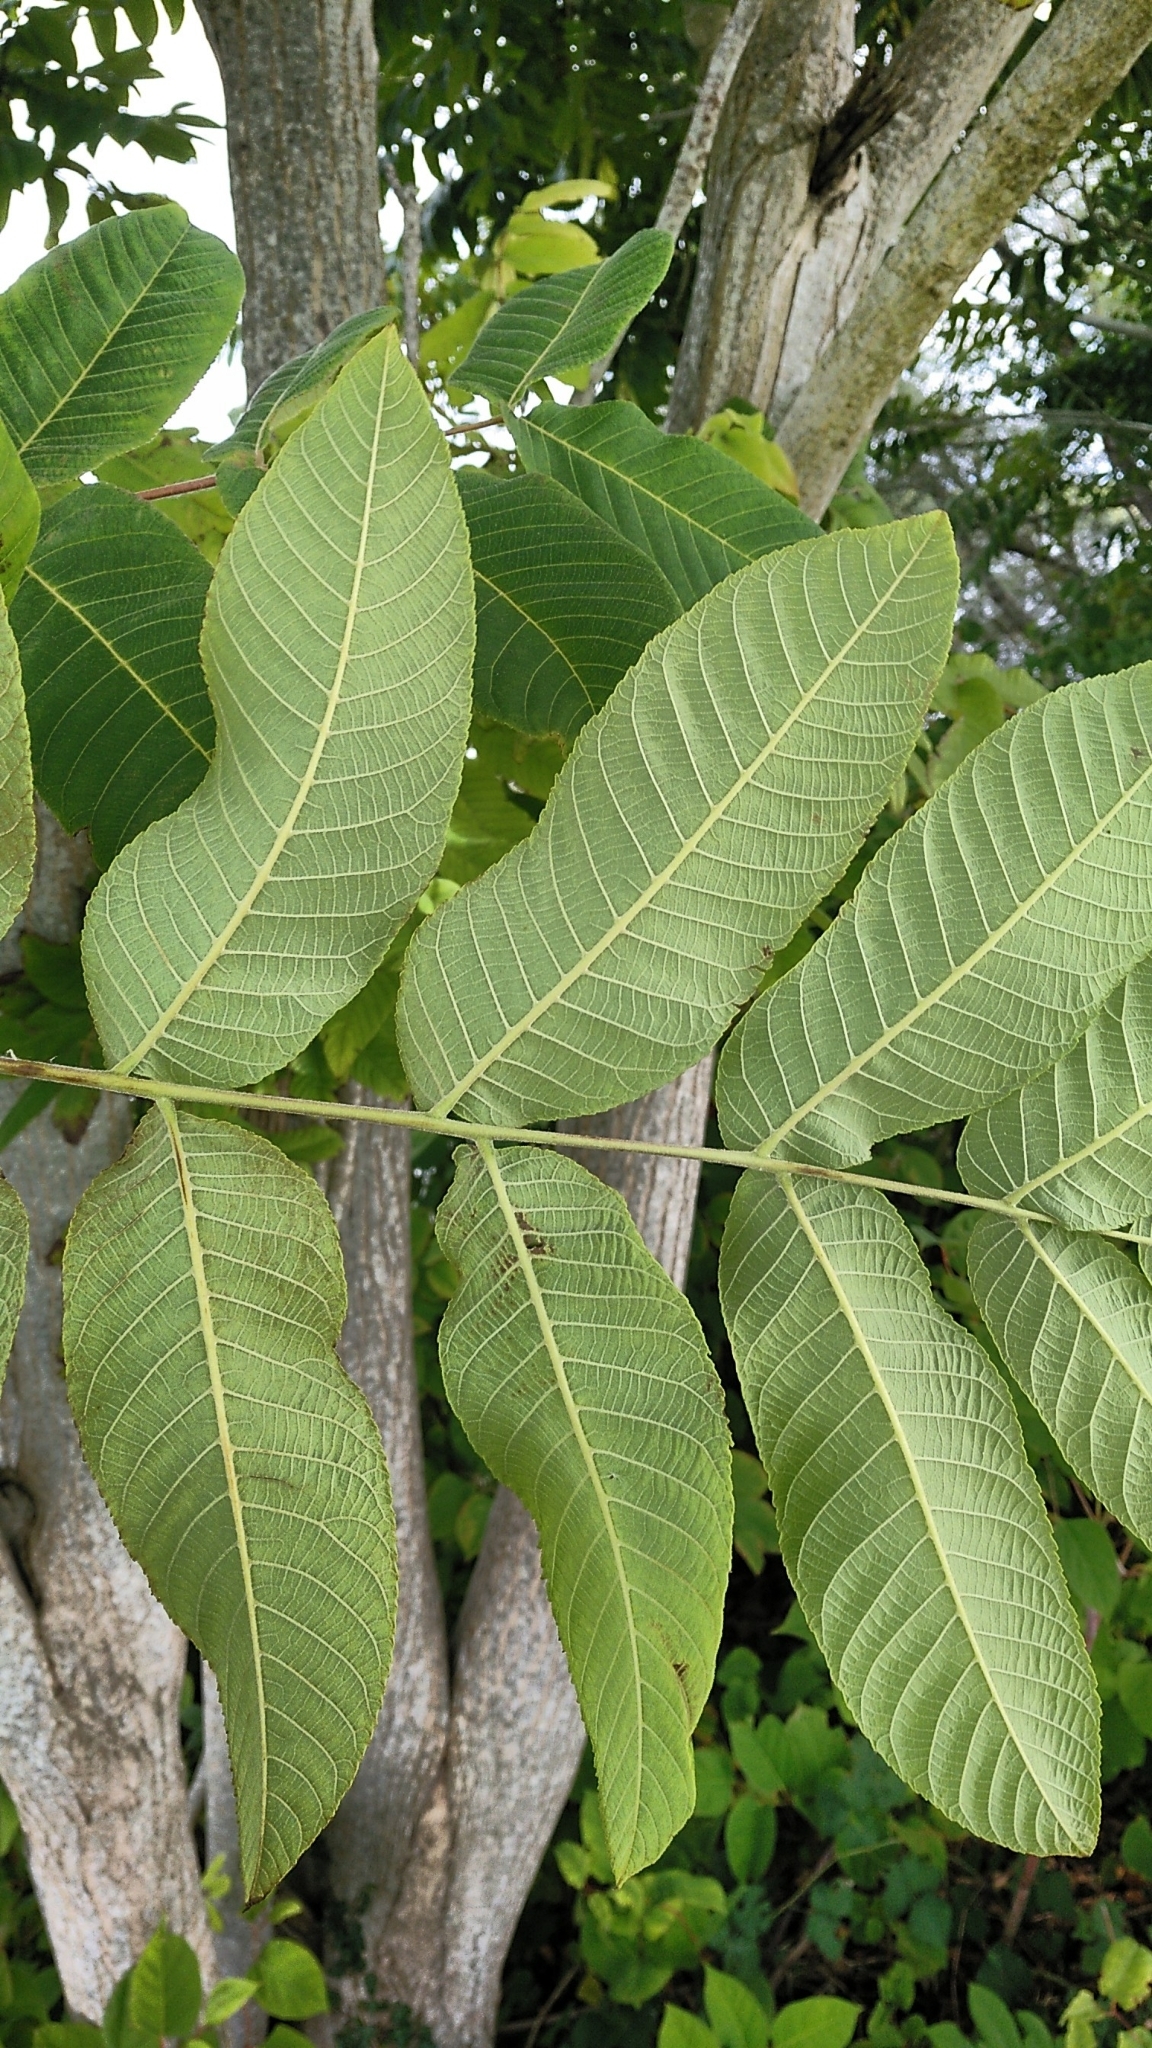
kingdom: Plantae
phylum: Tracheophyta
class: Magnoliopsida
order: Fagales
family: Juglandaceae
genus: Juglans
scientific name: Juglans mandshurica
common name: Manchurian walnut
